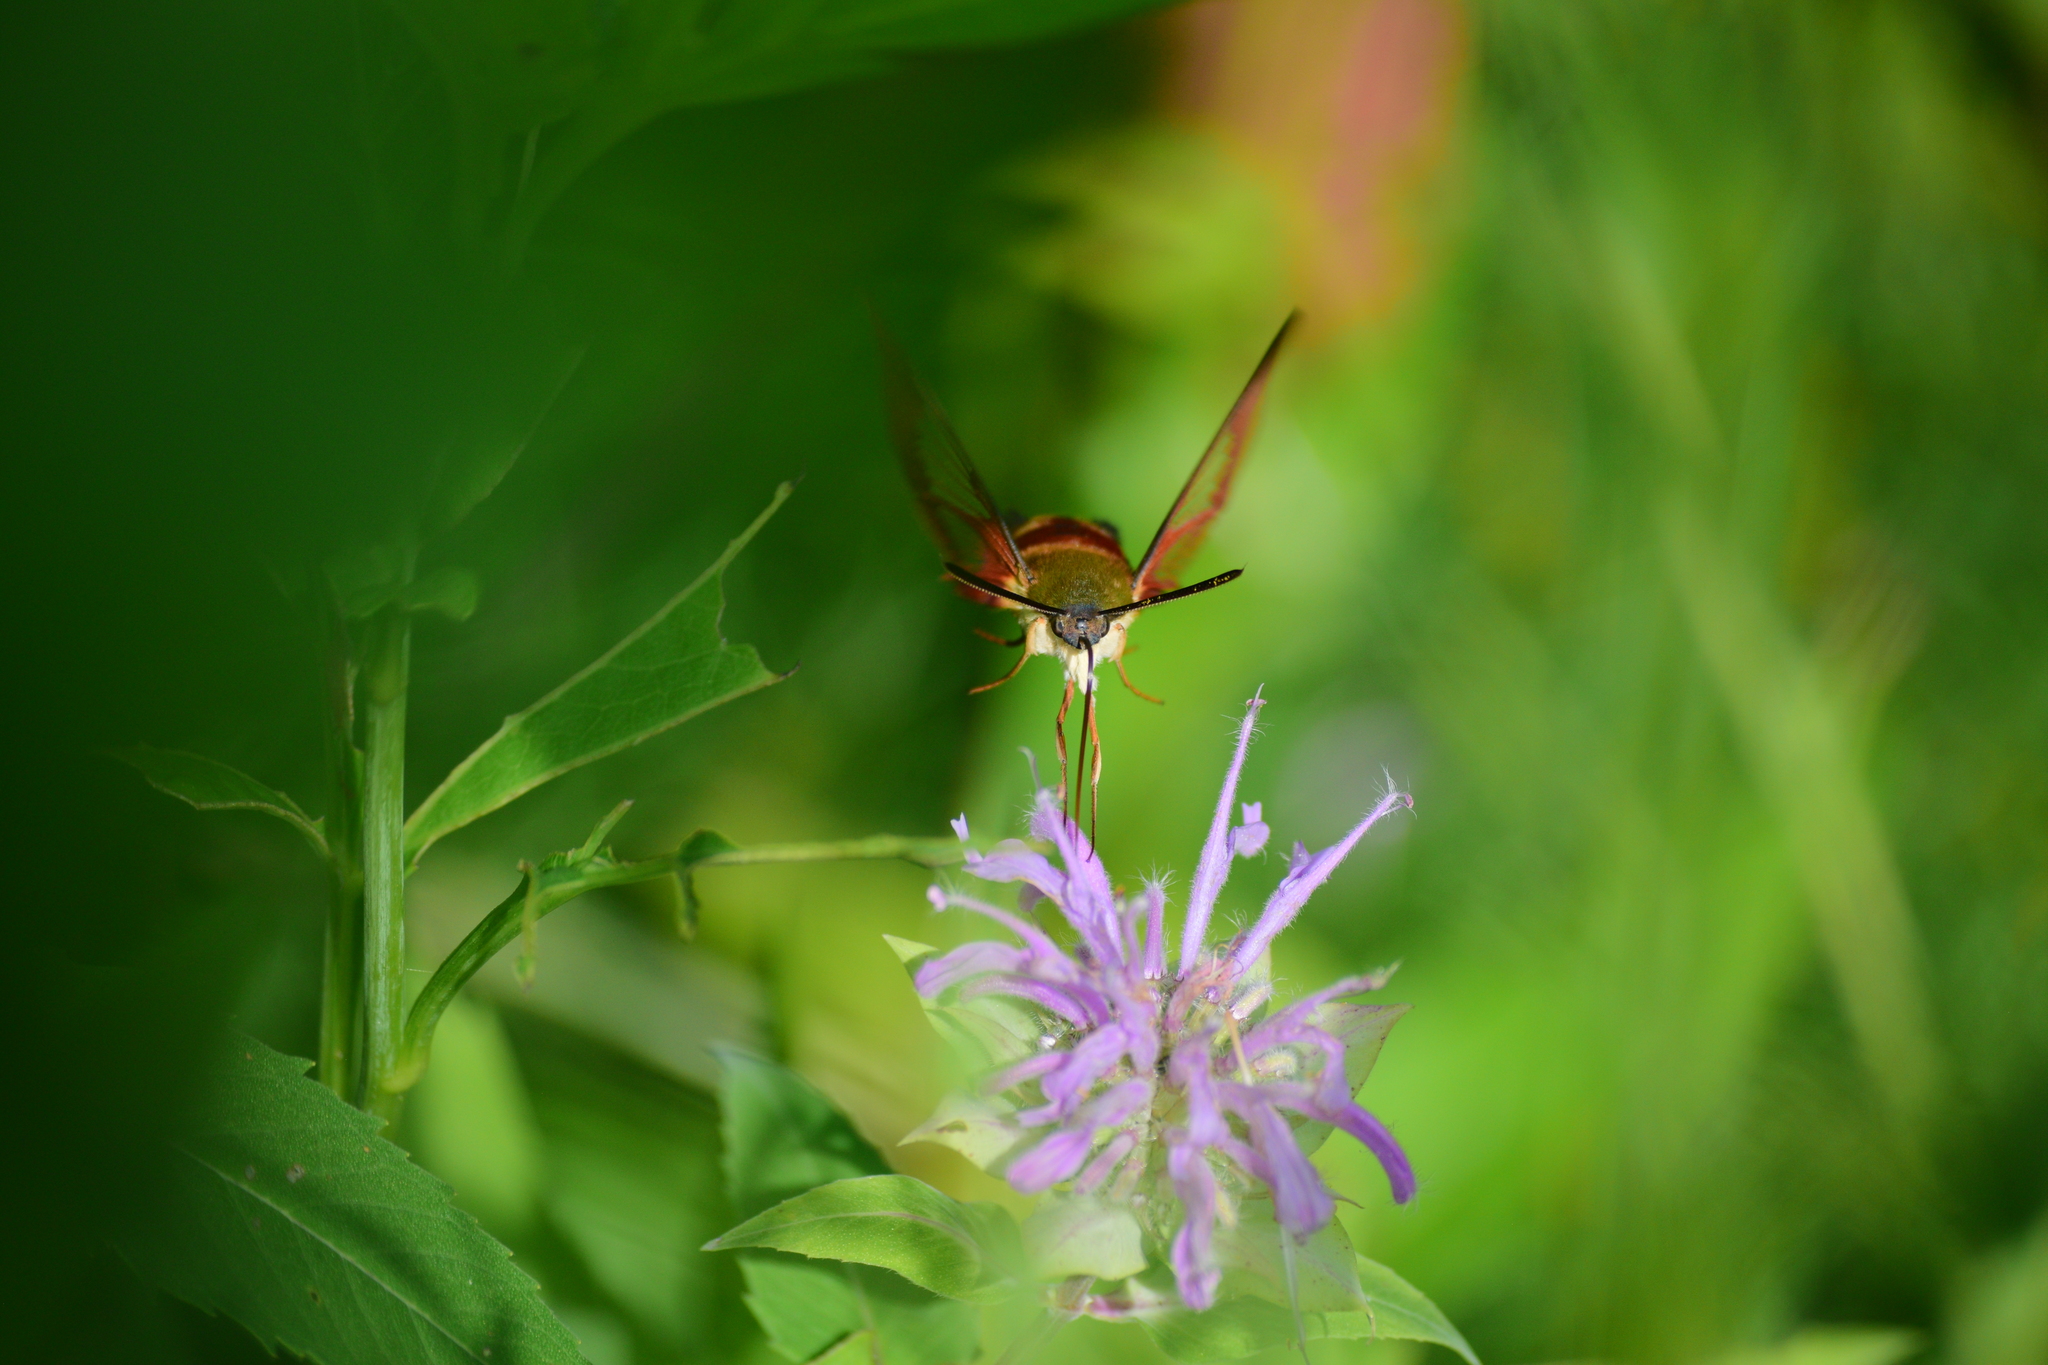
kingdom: Animalia
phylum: Arthropoda
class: Insecta
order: Lepidoptera
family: Sphingidae
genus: Hemaris
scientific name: Hemaris thysbe
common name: Common clear-wing
